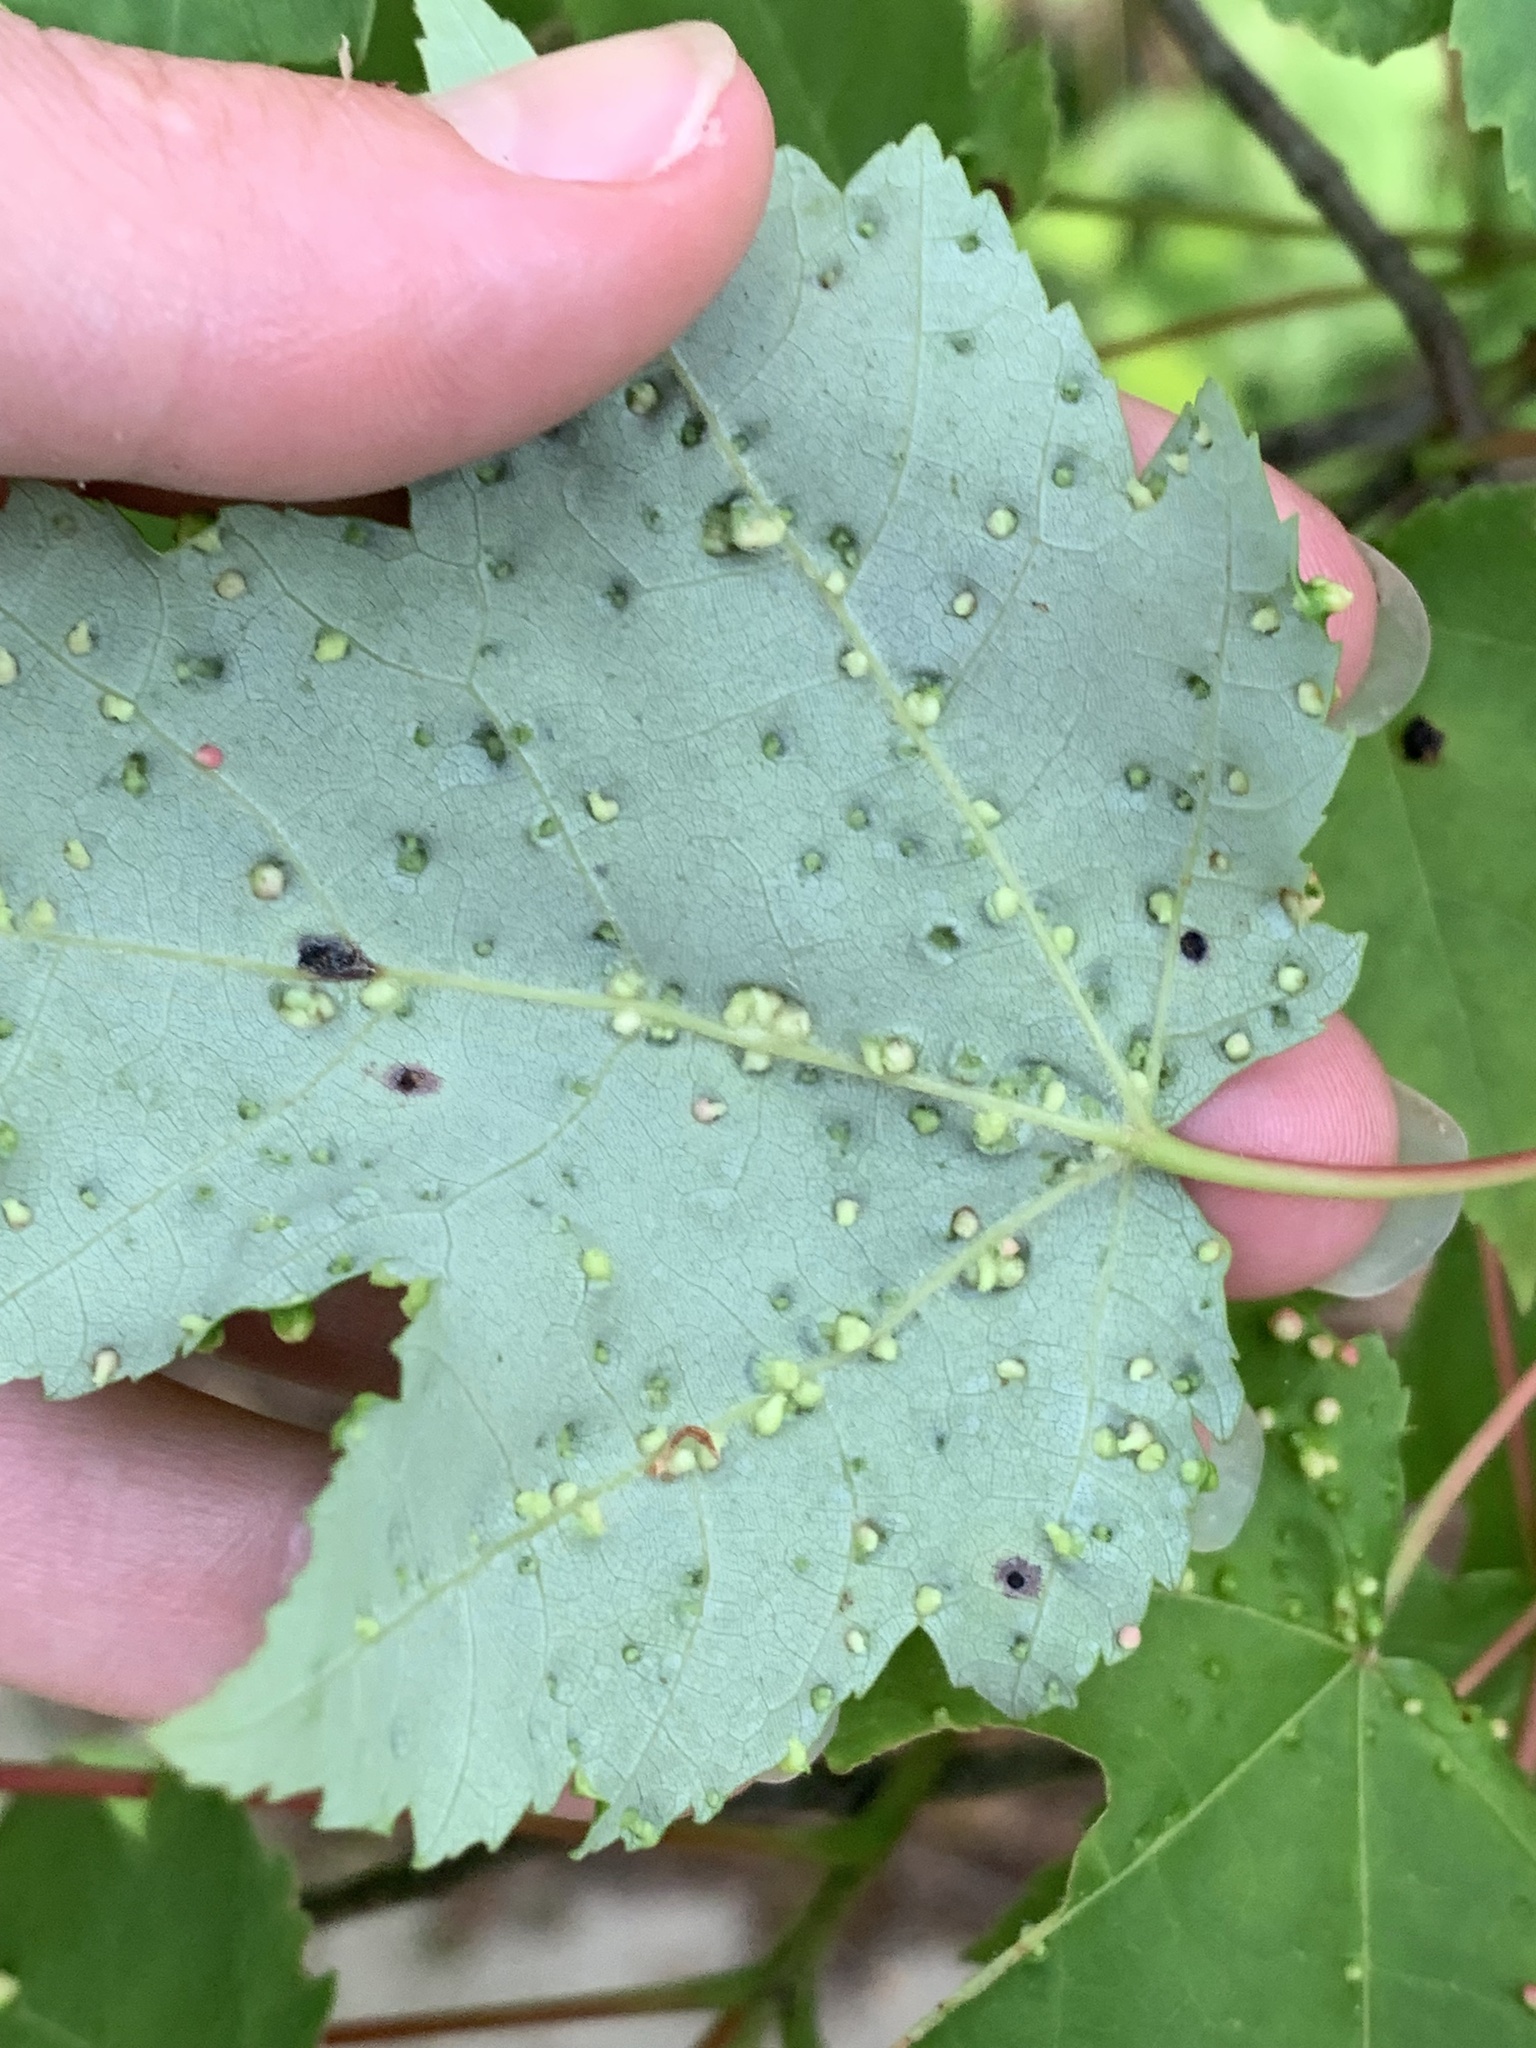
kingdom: Animalia
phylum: Arthropoda
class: Arachnida
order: Trombidiformes
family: Eriophyidae
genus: Vasates
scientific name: Vasates quadripedes
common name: Maple bladder gall mite
